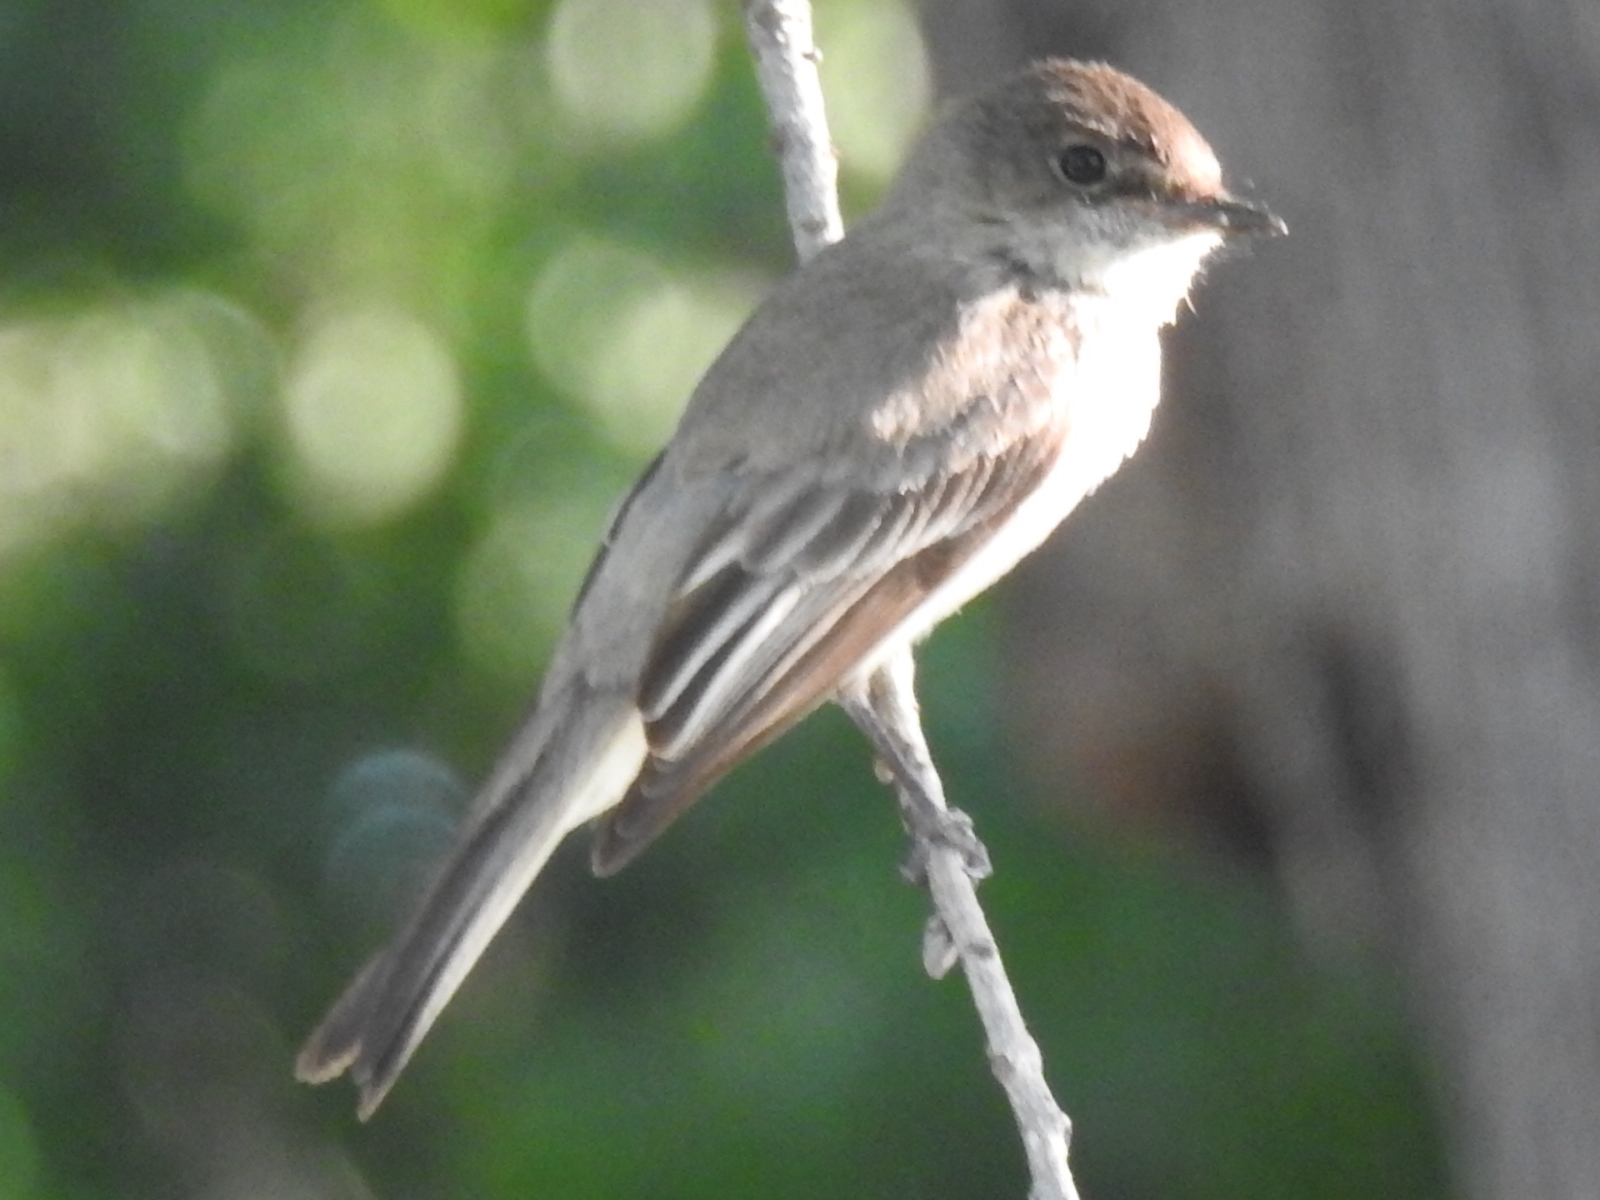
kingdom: Animalia
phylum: Chordata
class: Aves
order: Passeriformes
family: Tyrannidae
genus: Sayornis
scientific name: Sayornis phoebe
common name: Eastern phoebe
